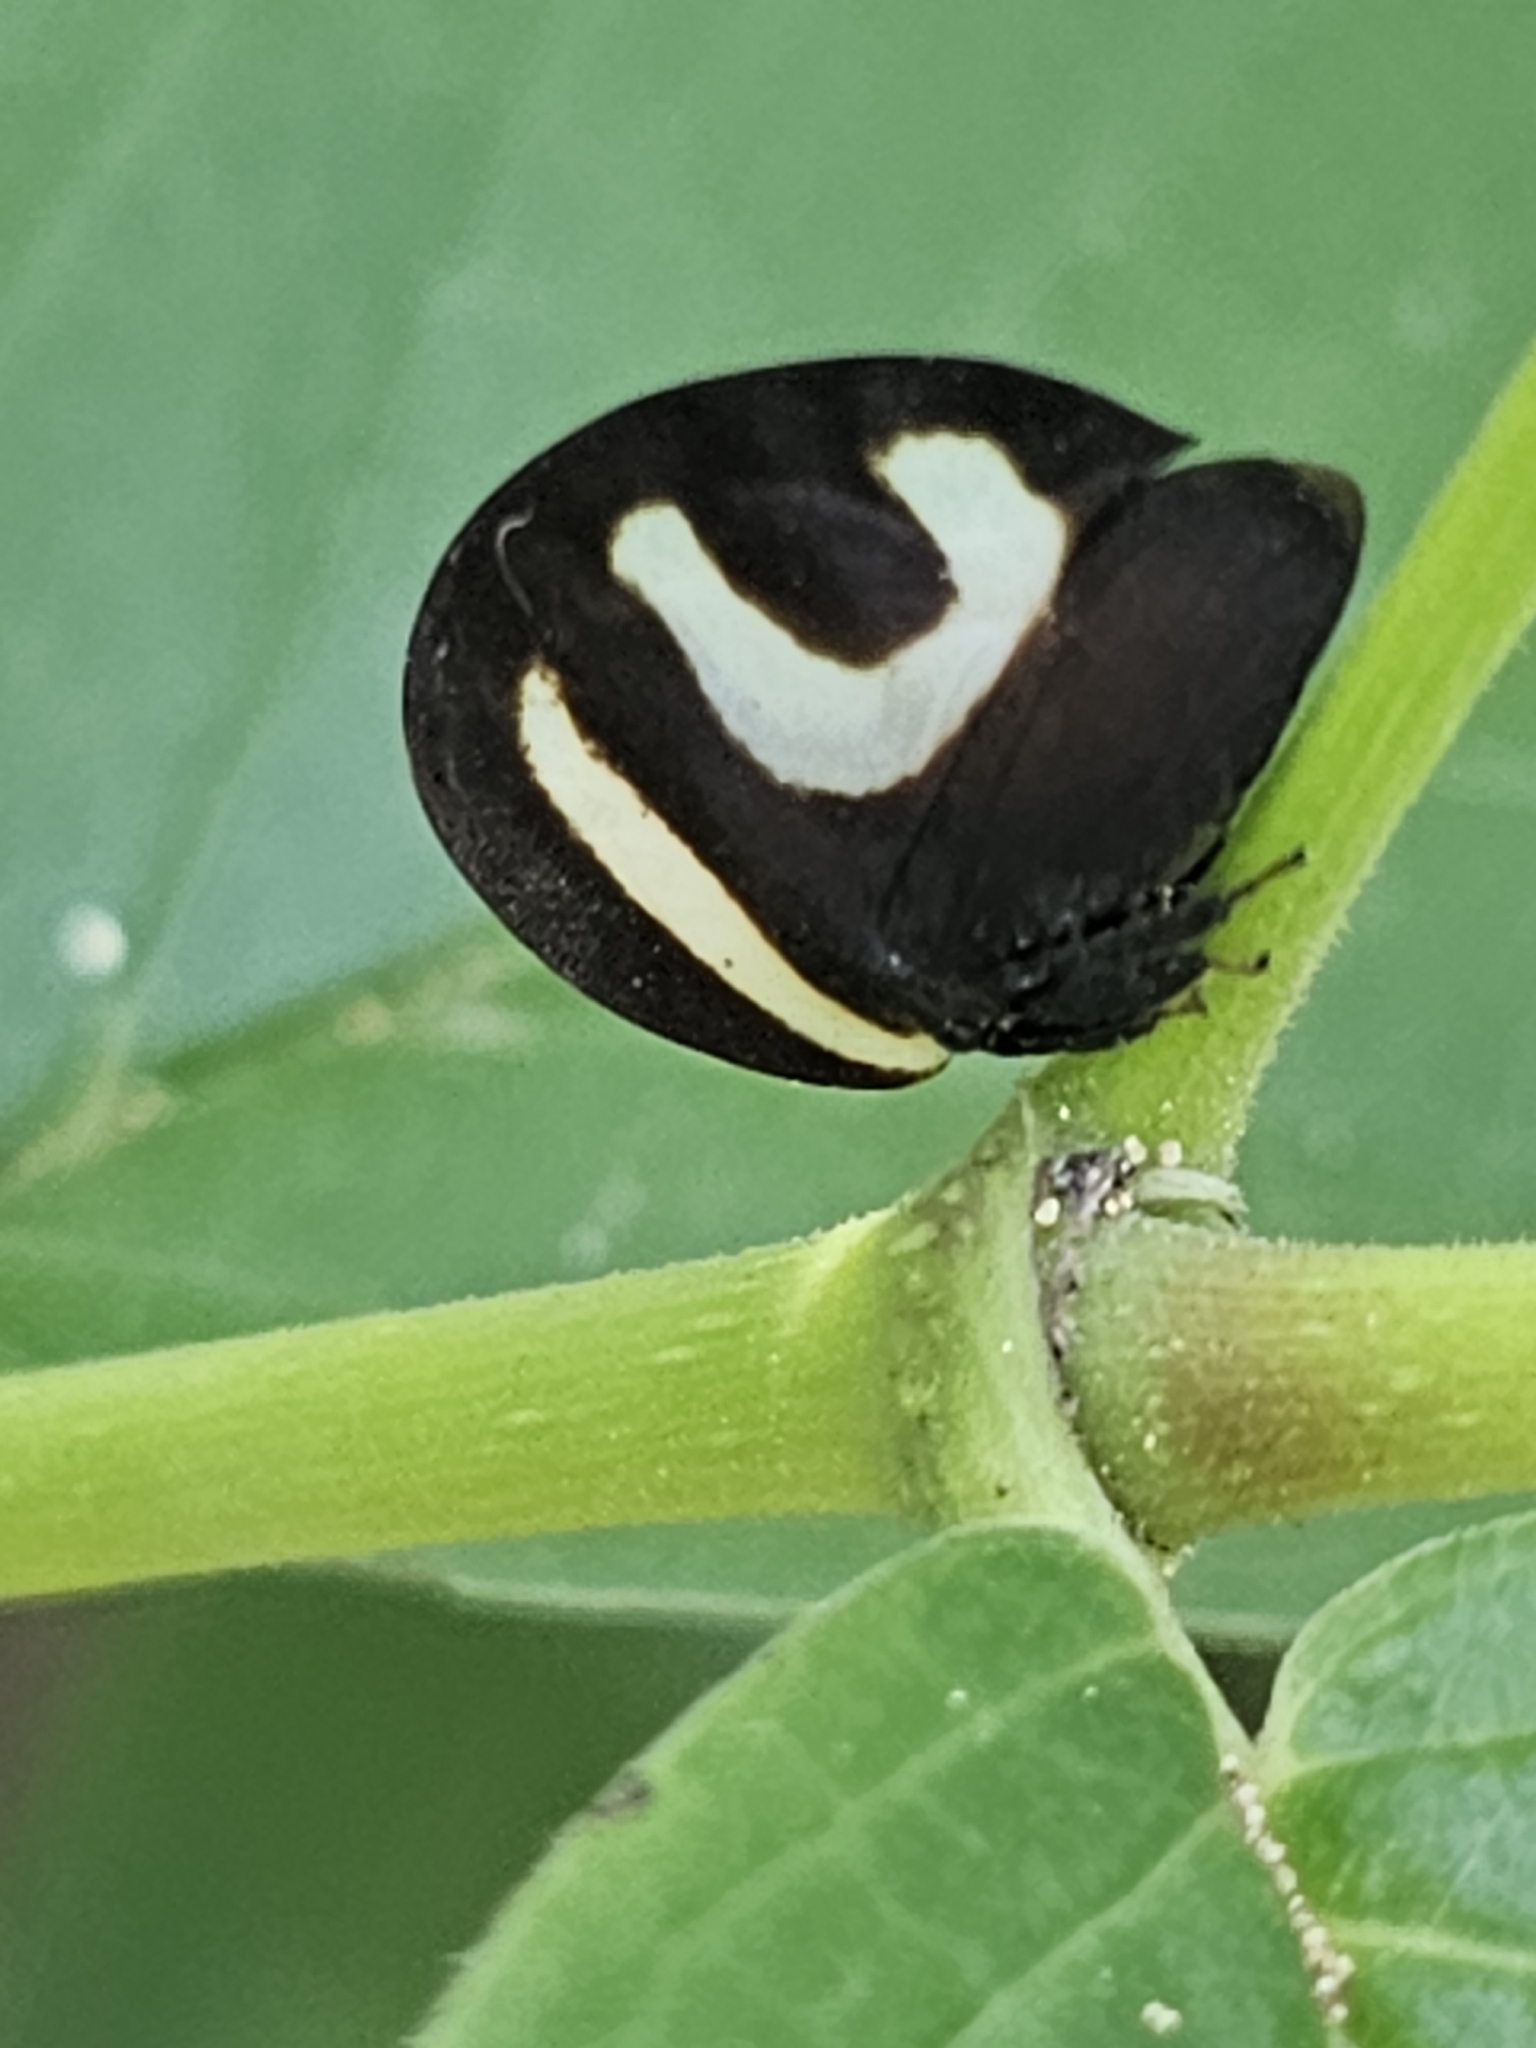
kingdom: Animalia
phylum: Arthropoda
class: Insecta
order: Hemiptera
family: Membracidae
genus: Membracis
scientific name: Membracis foliatafasciata
